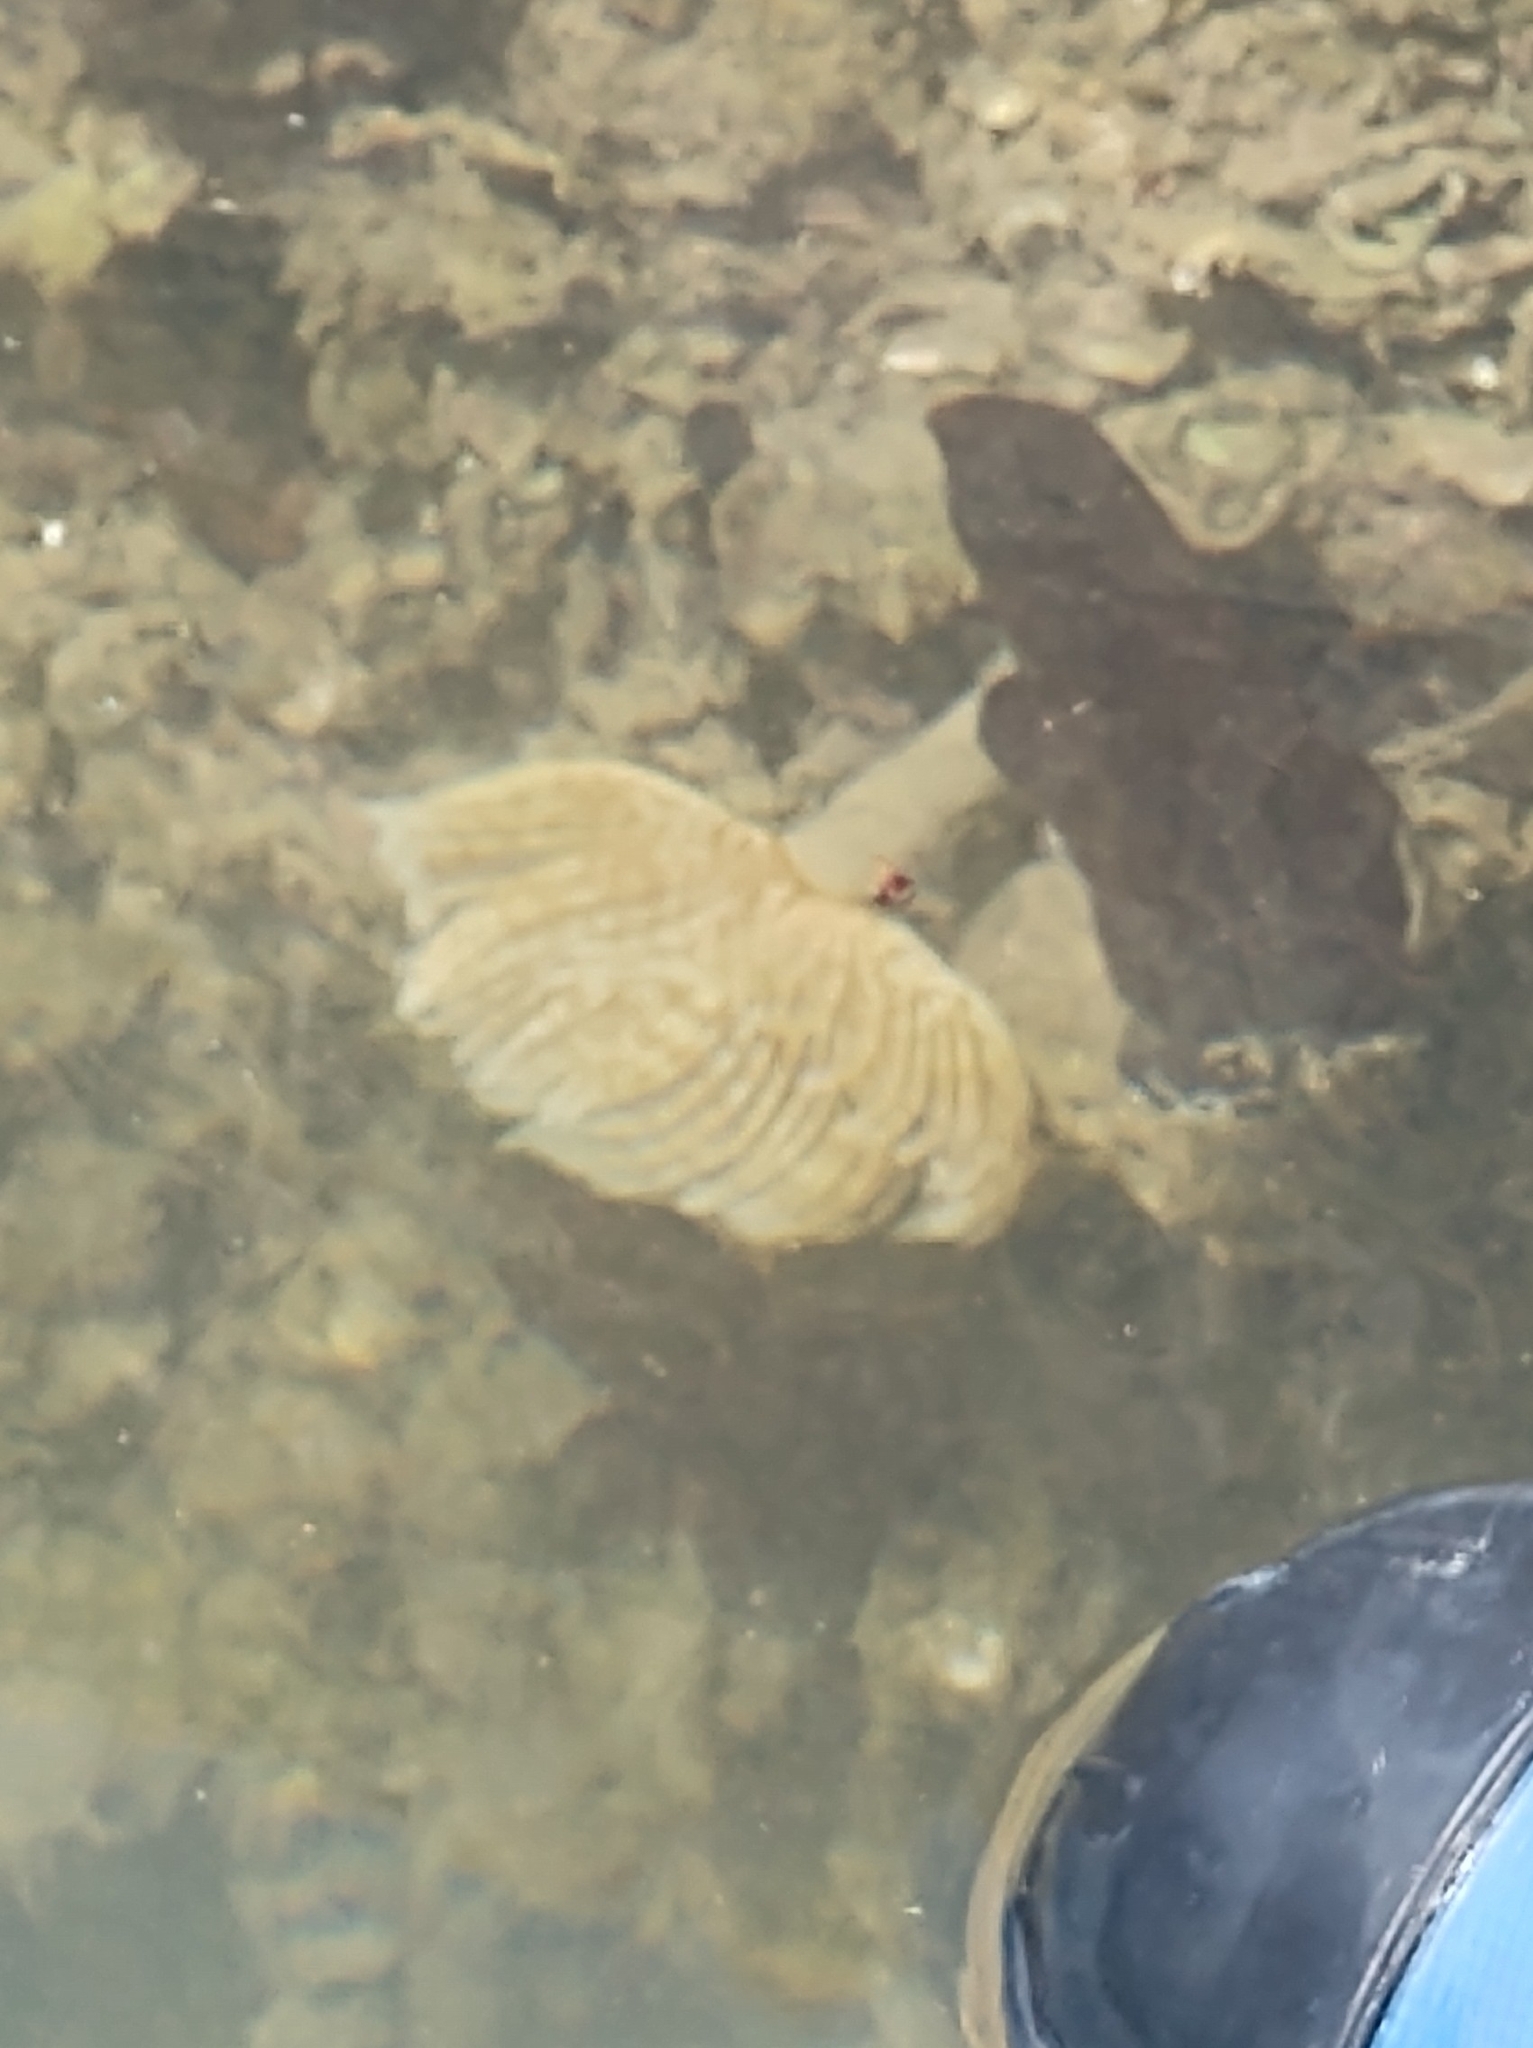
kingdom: Animalia
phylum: Annelida
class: Polychaeta
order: Sabellida
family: Sabellidae
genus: Sabellastarte
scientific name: Sabellastarte magnifica
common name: Giant feather-duster worm
